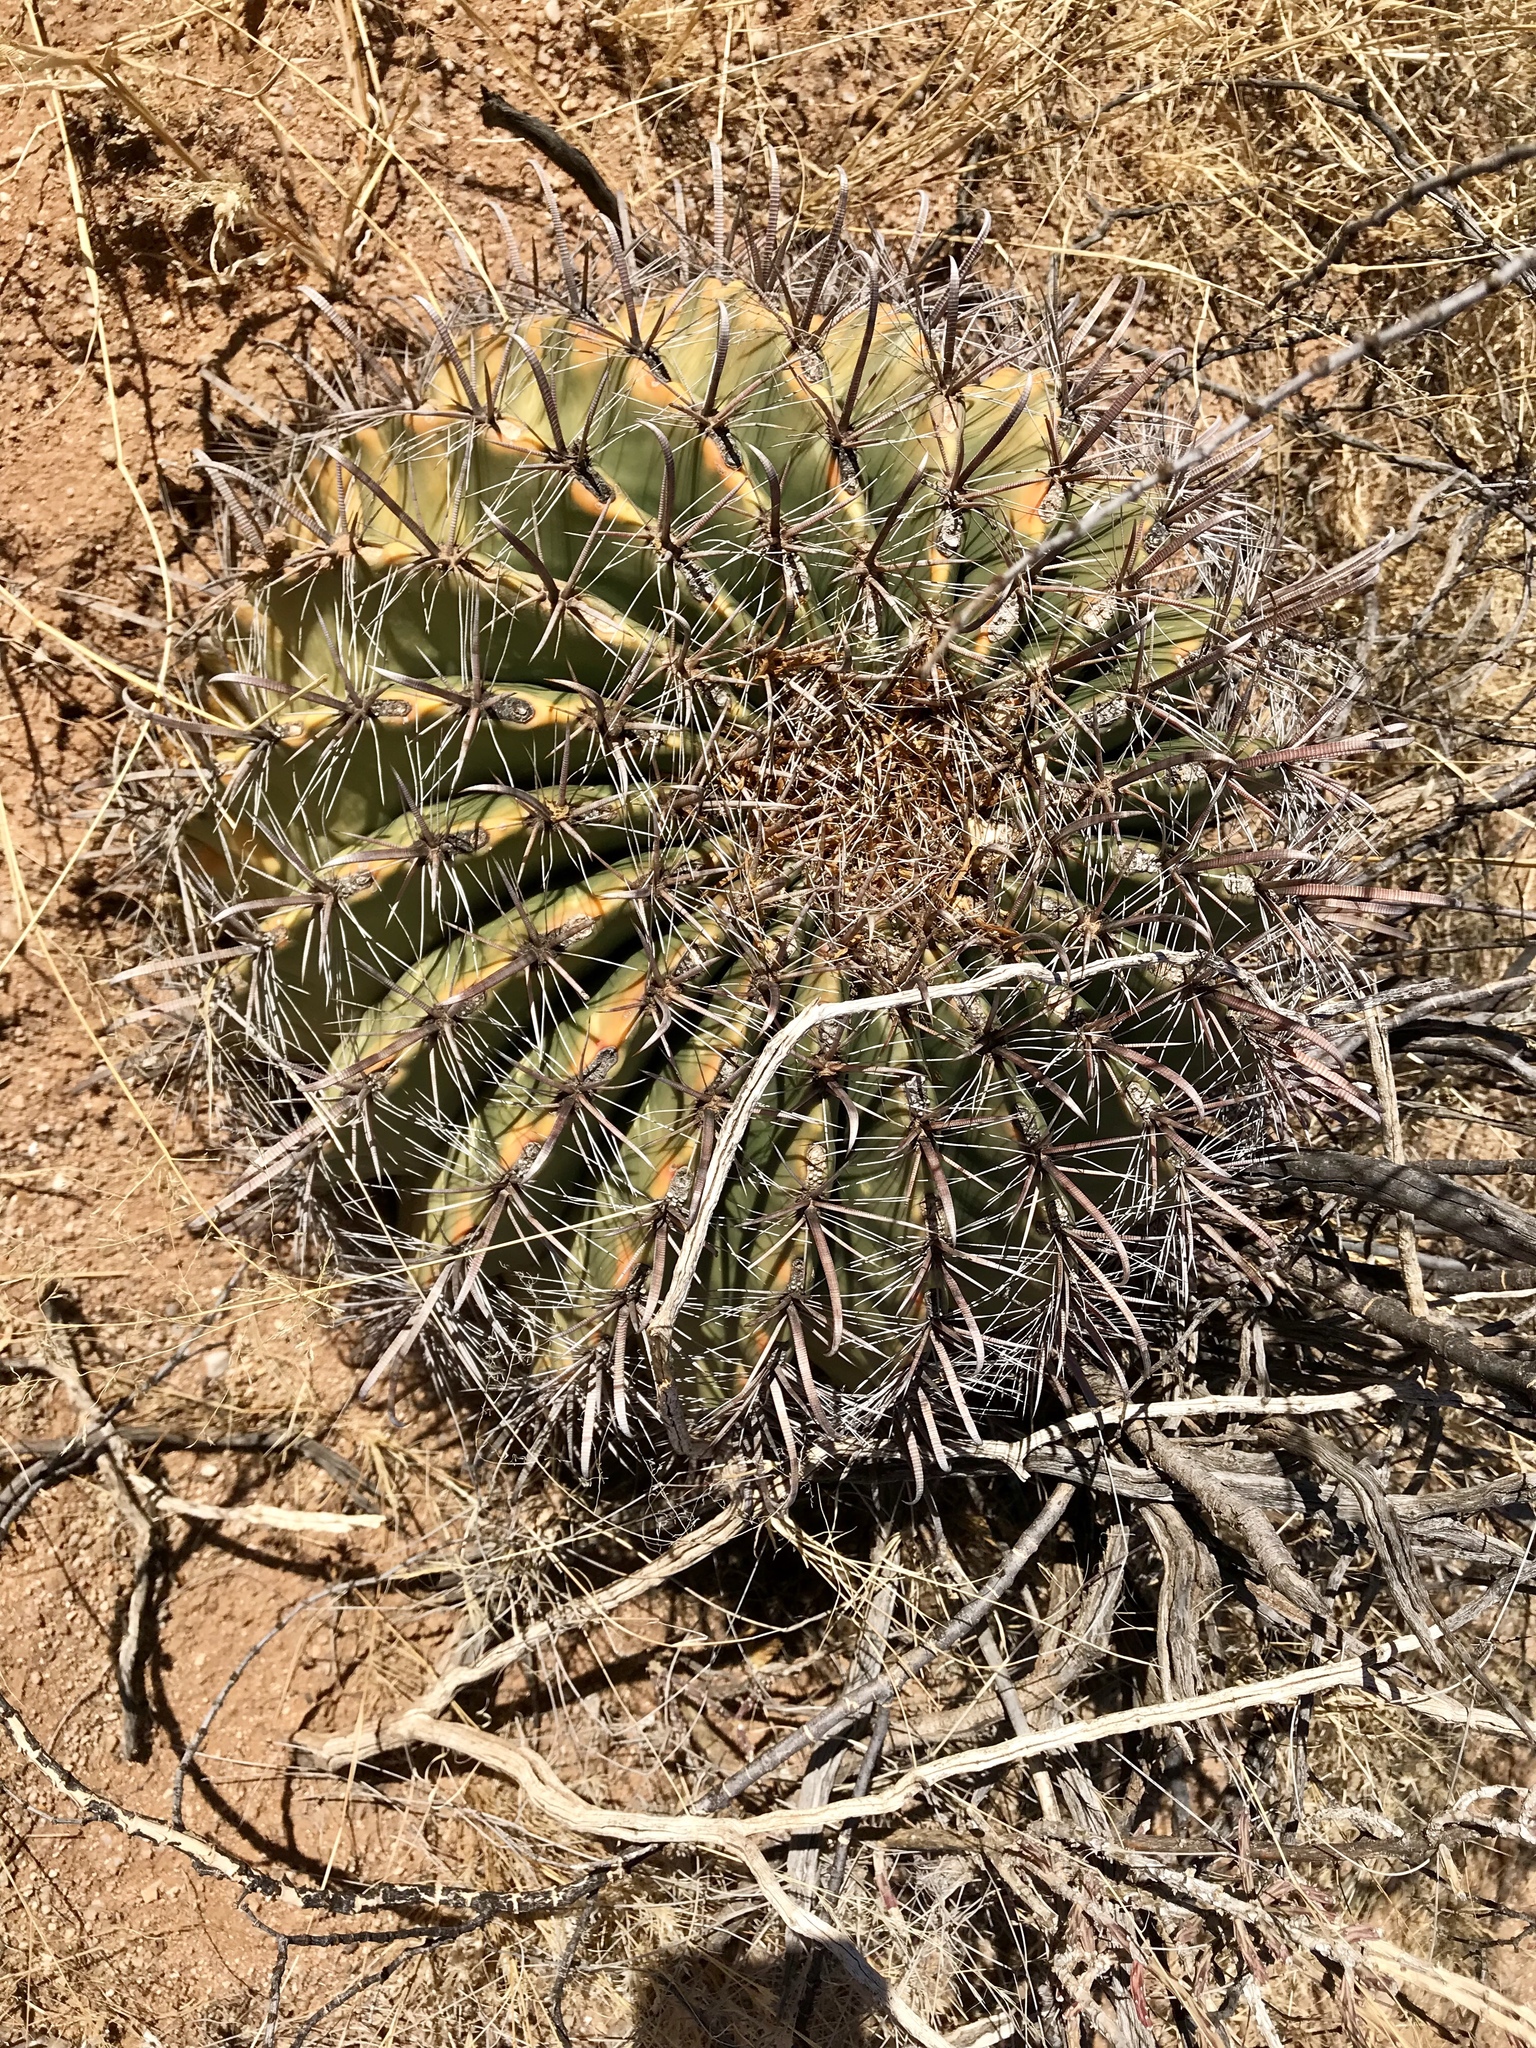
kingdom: Plantae
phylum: Tracheophyta
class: Magnoliopsida
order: Caryophyllales
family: Cactaceae
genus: Ferocactus
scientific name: Ferocactus wislizeni
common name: Candy barrel cactus
